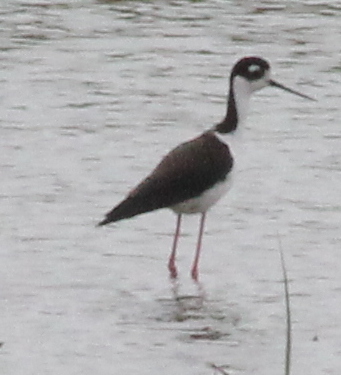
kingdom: Animalia
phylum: Chordata
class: Aves
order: Charadriiformes
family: Recurvirostridae
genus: Himantopus
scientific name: Himantopus mexicanus
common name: Black-necked stilt
